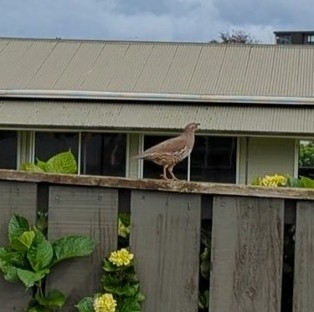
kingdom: Animalia
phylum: Chordata
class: Aves
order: Galliformes
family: Odontophoridae
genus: Callipepla
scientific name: Callipepla californica
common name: California quail
